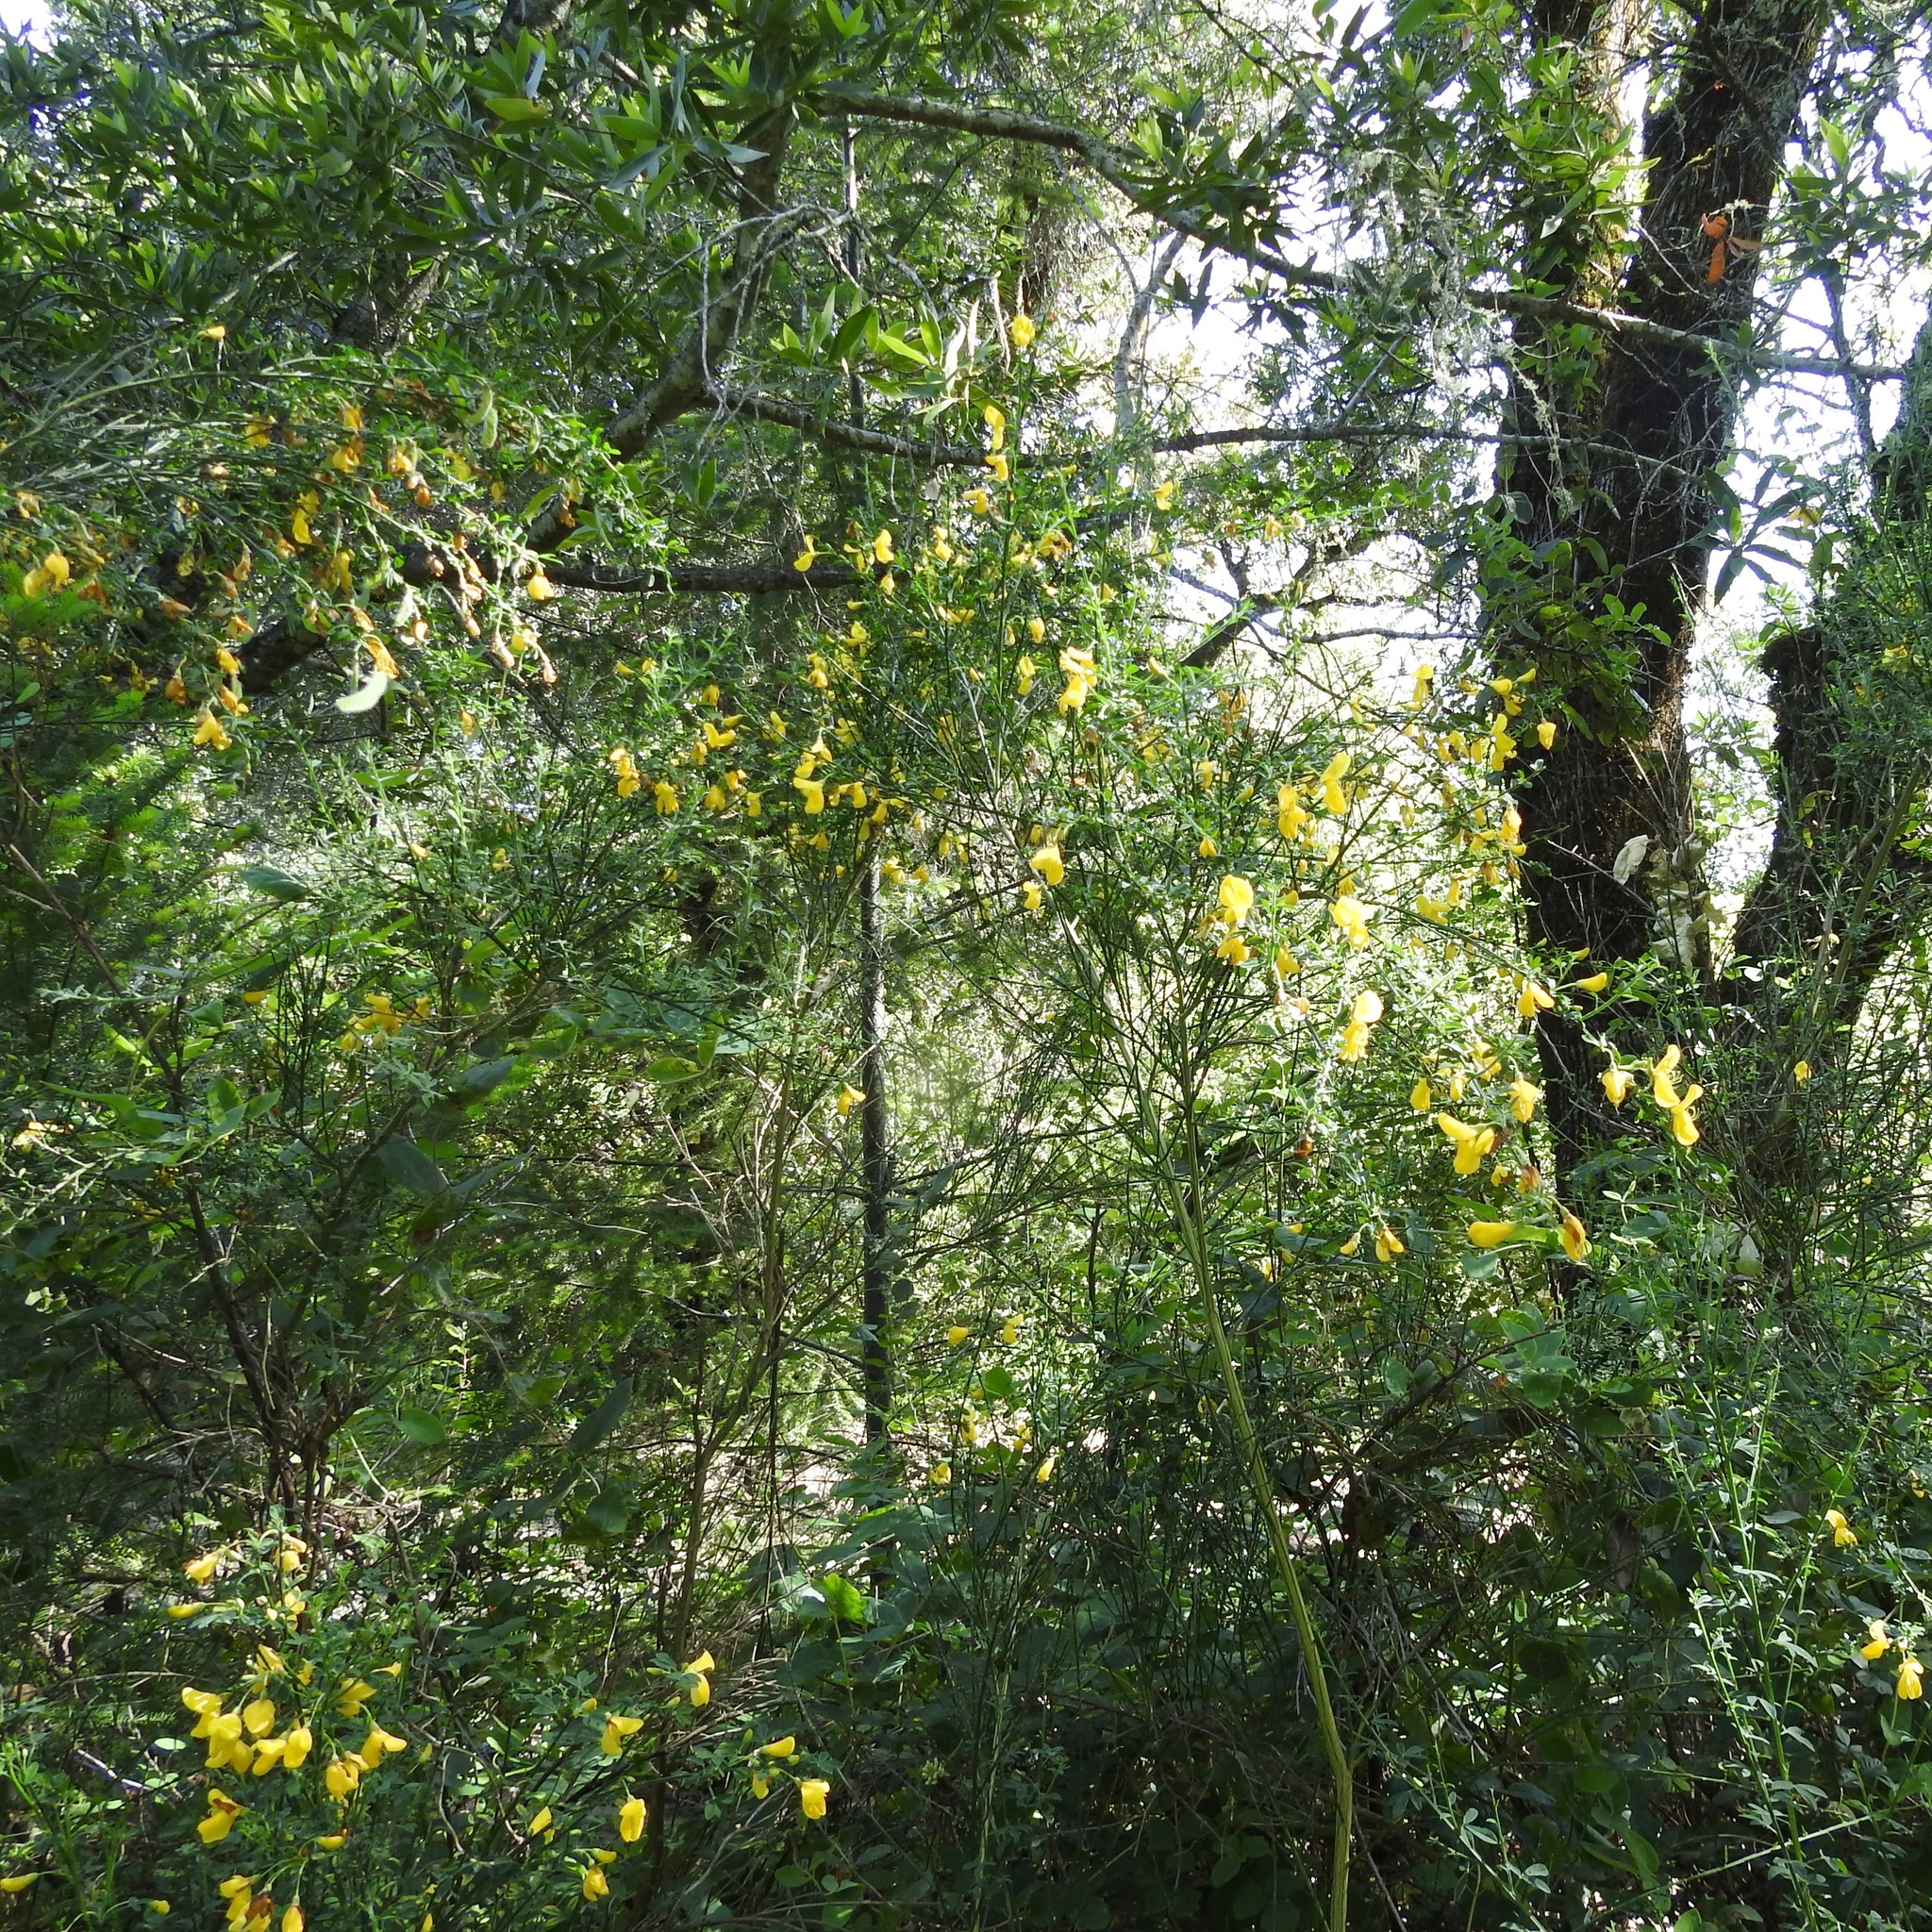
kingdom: Plantae
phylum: Tracheophyta
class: Magnoliopsida
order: Fabales
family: Fabaceae
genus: Cytisus
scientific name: Cytisus scoparius
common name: Scotch broom
